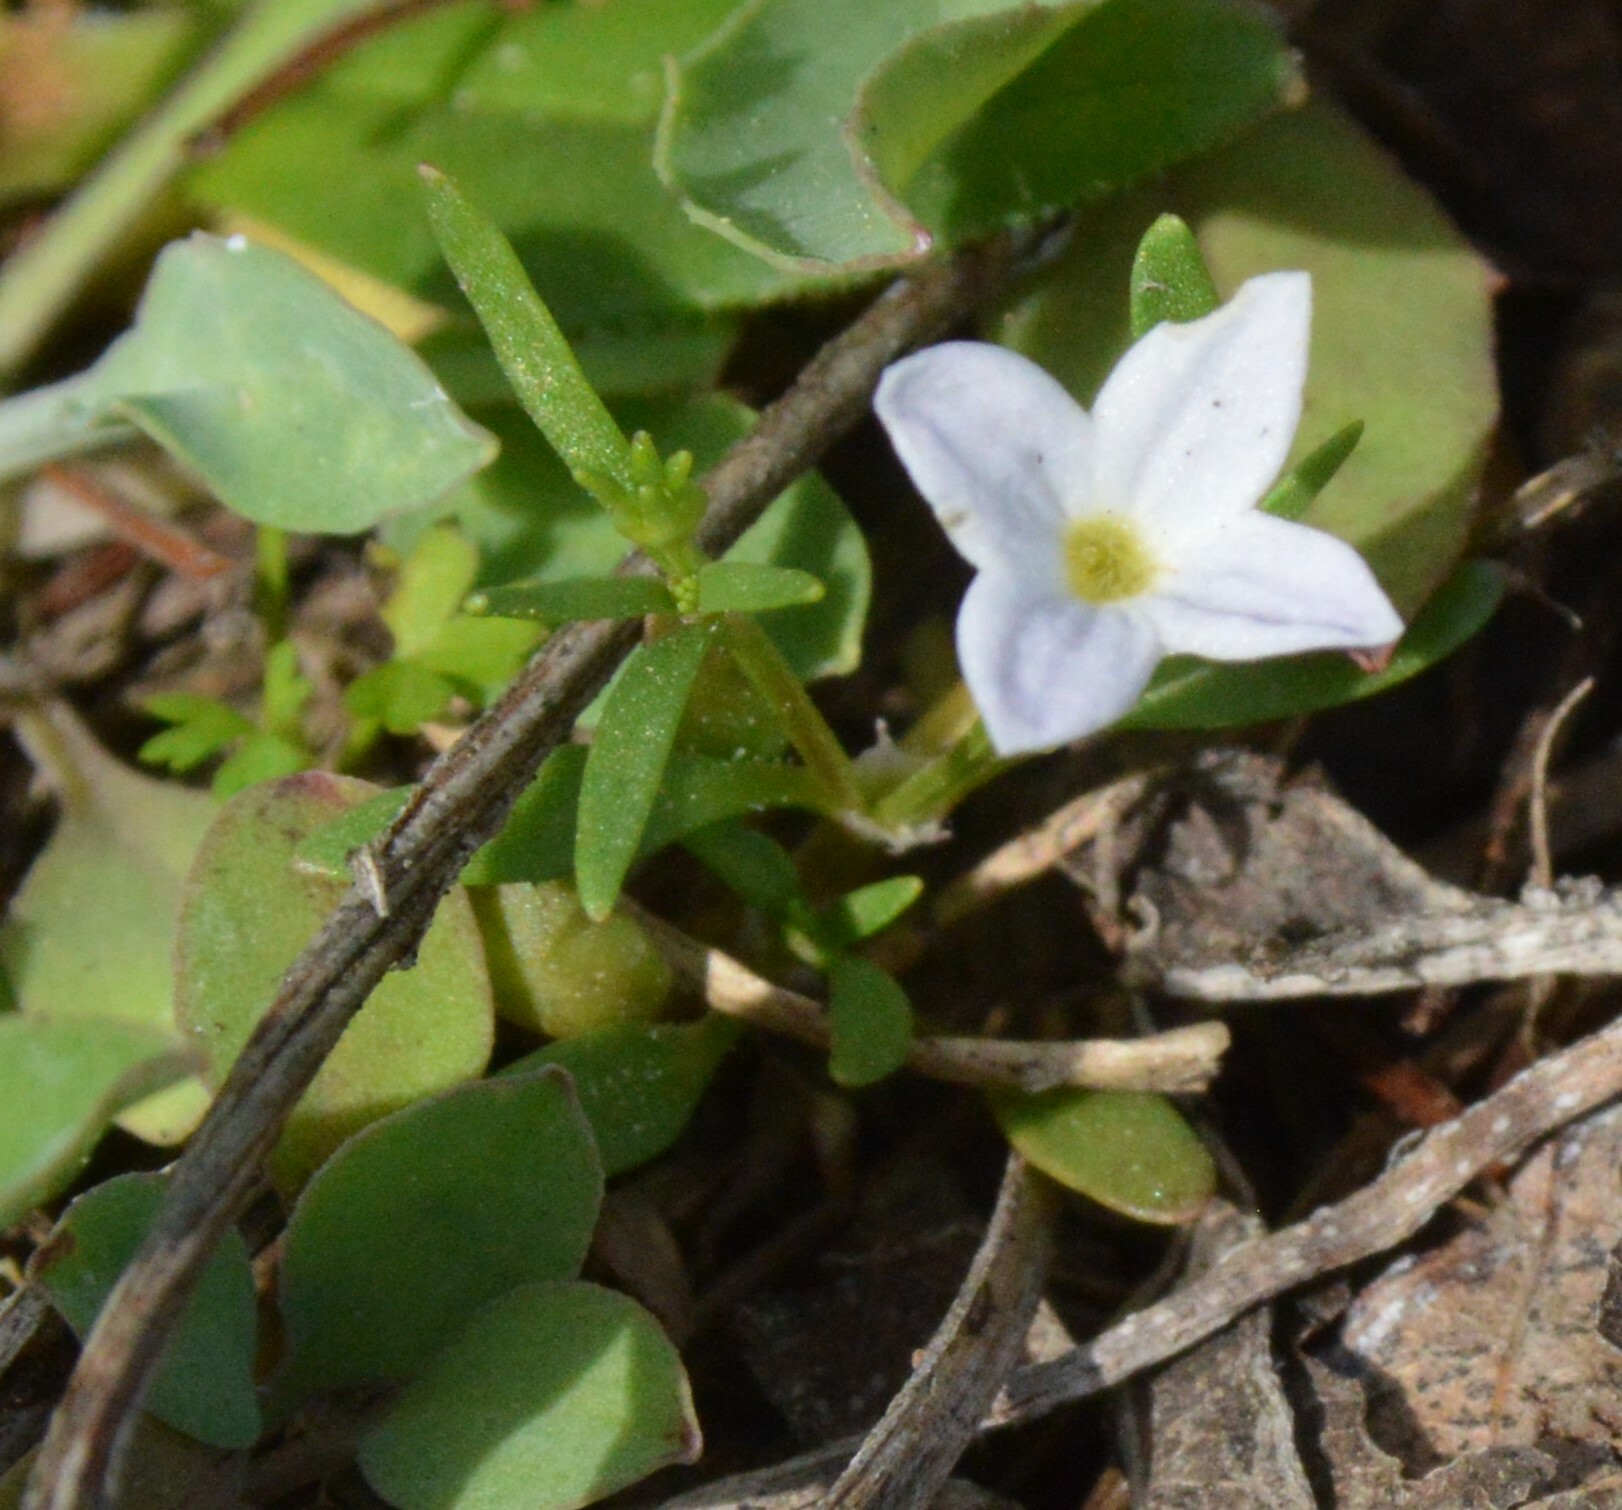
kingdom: Plantae
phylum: Tracheophyta
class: Magnoliopsida
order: Gentianales
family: Rubiaceae
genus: Houstonia
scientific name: Houstonia rosea
